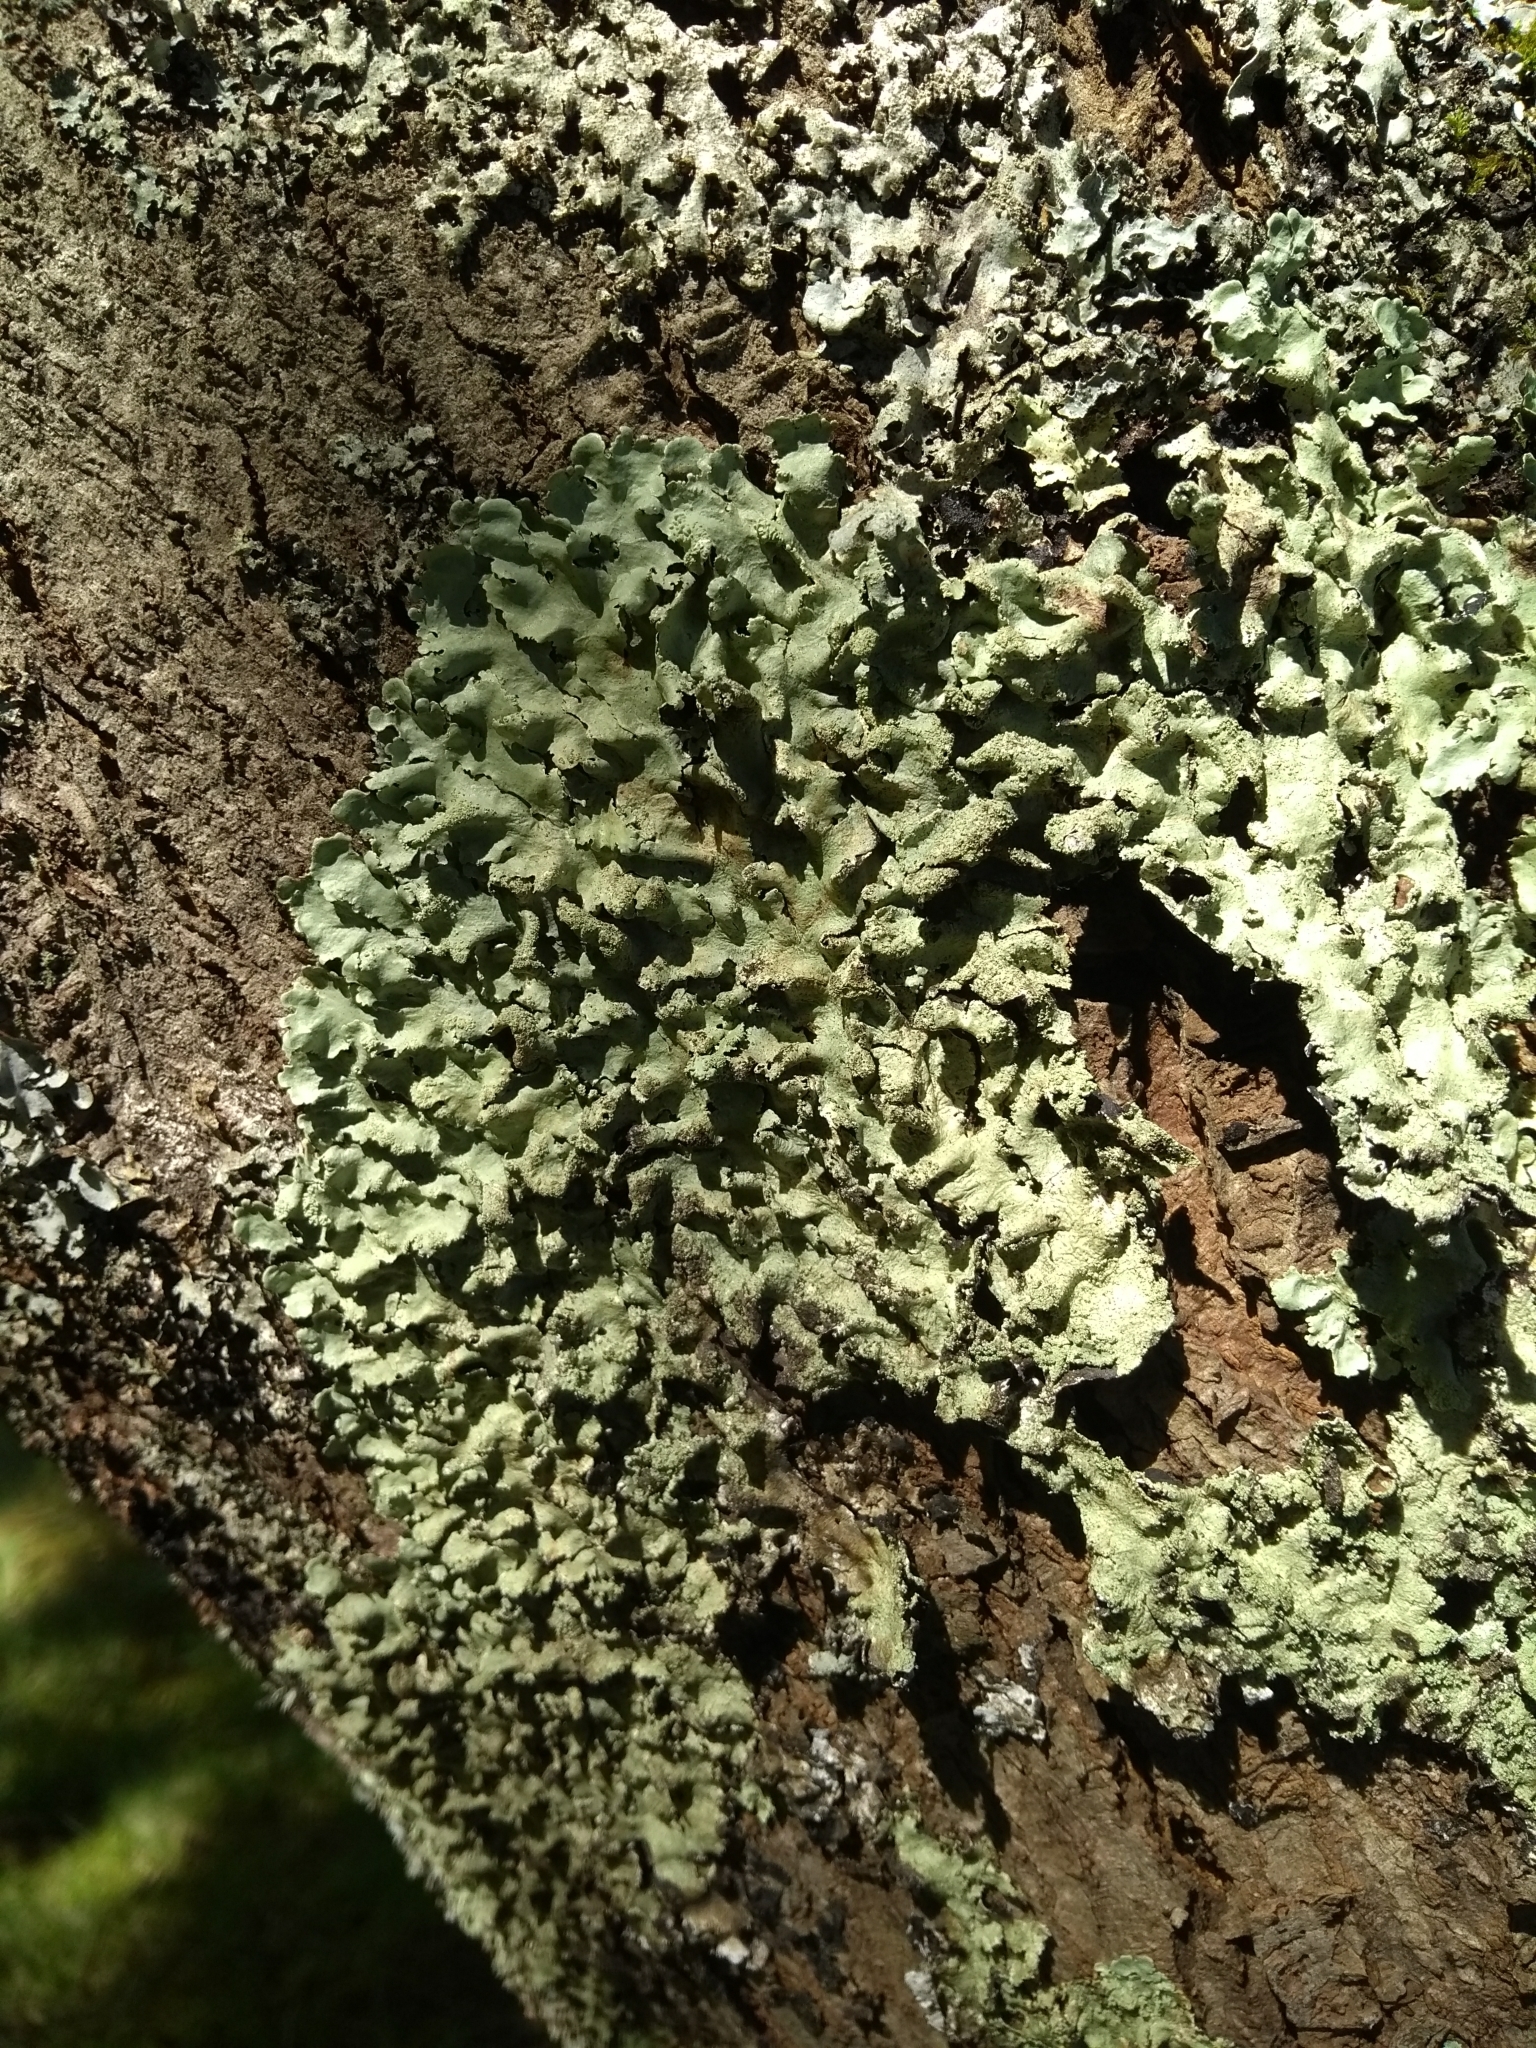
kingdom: Fungi
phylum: Ascomycota
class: Lecanoromycetes
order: Lecanorales
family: Parmeliaceae
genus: Flavoparmelia
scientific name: Flavoparmelia caperata
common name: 40-mile per hour lichen
